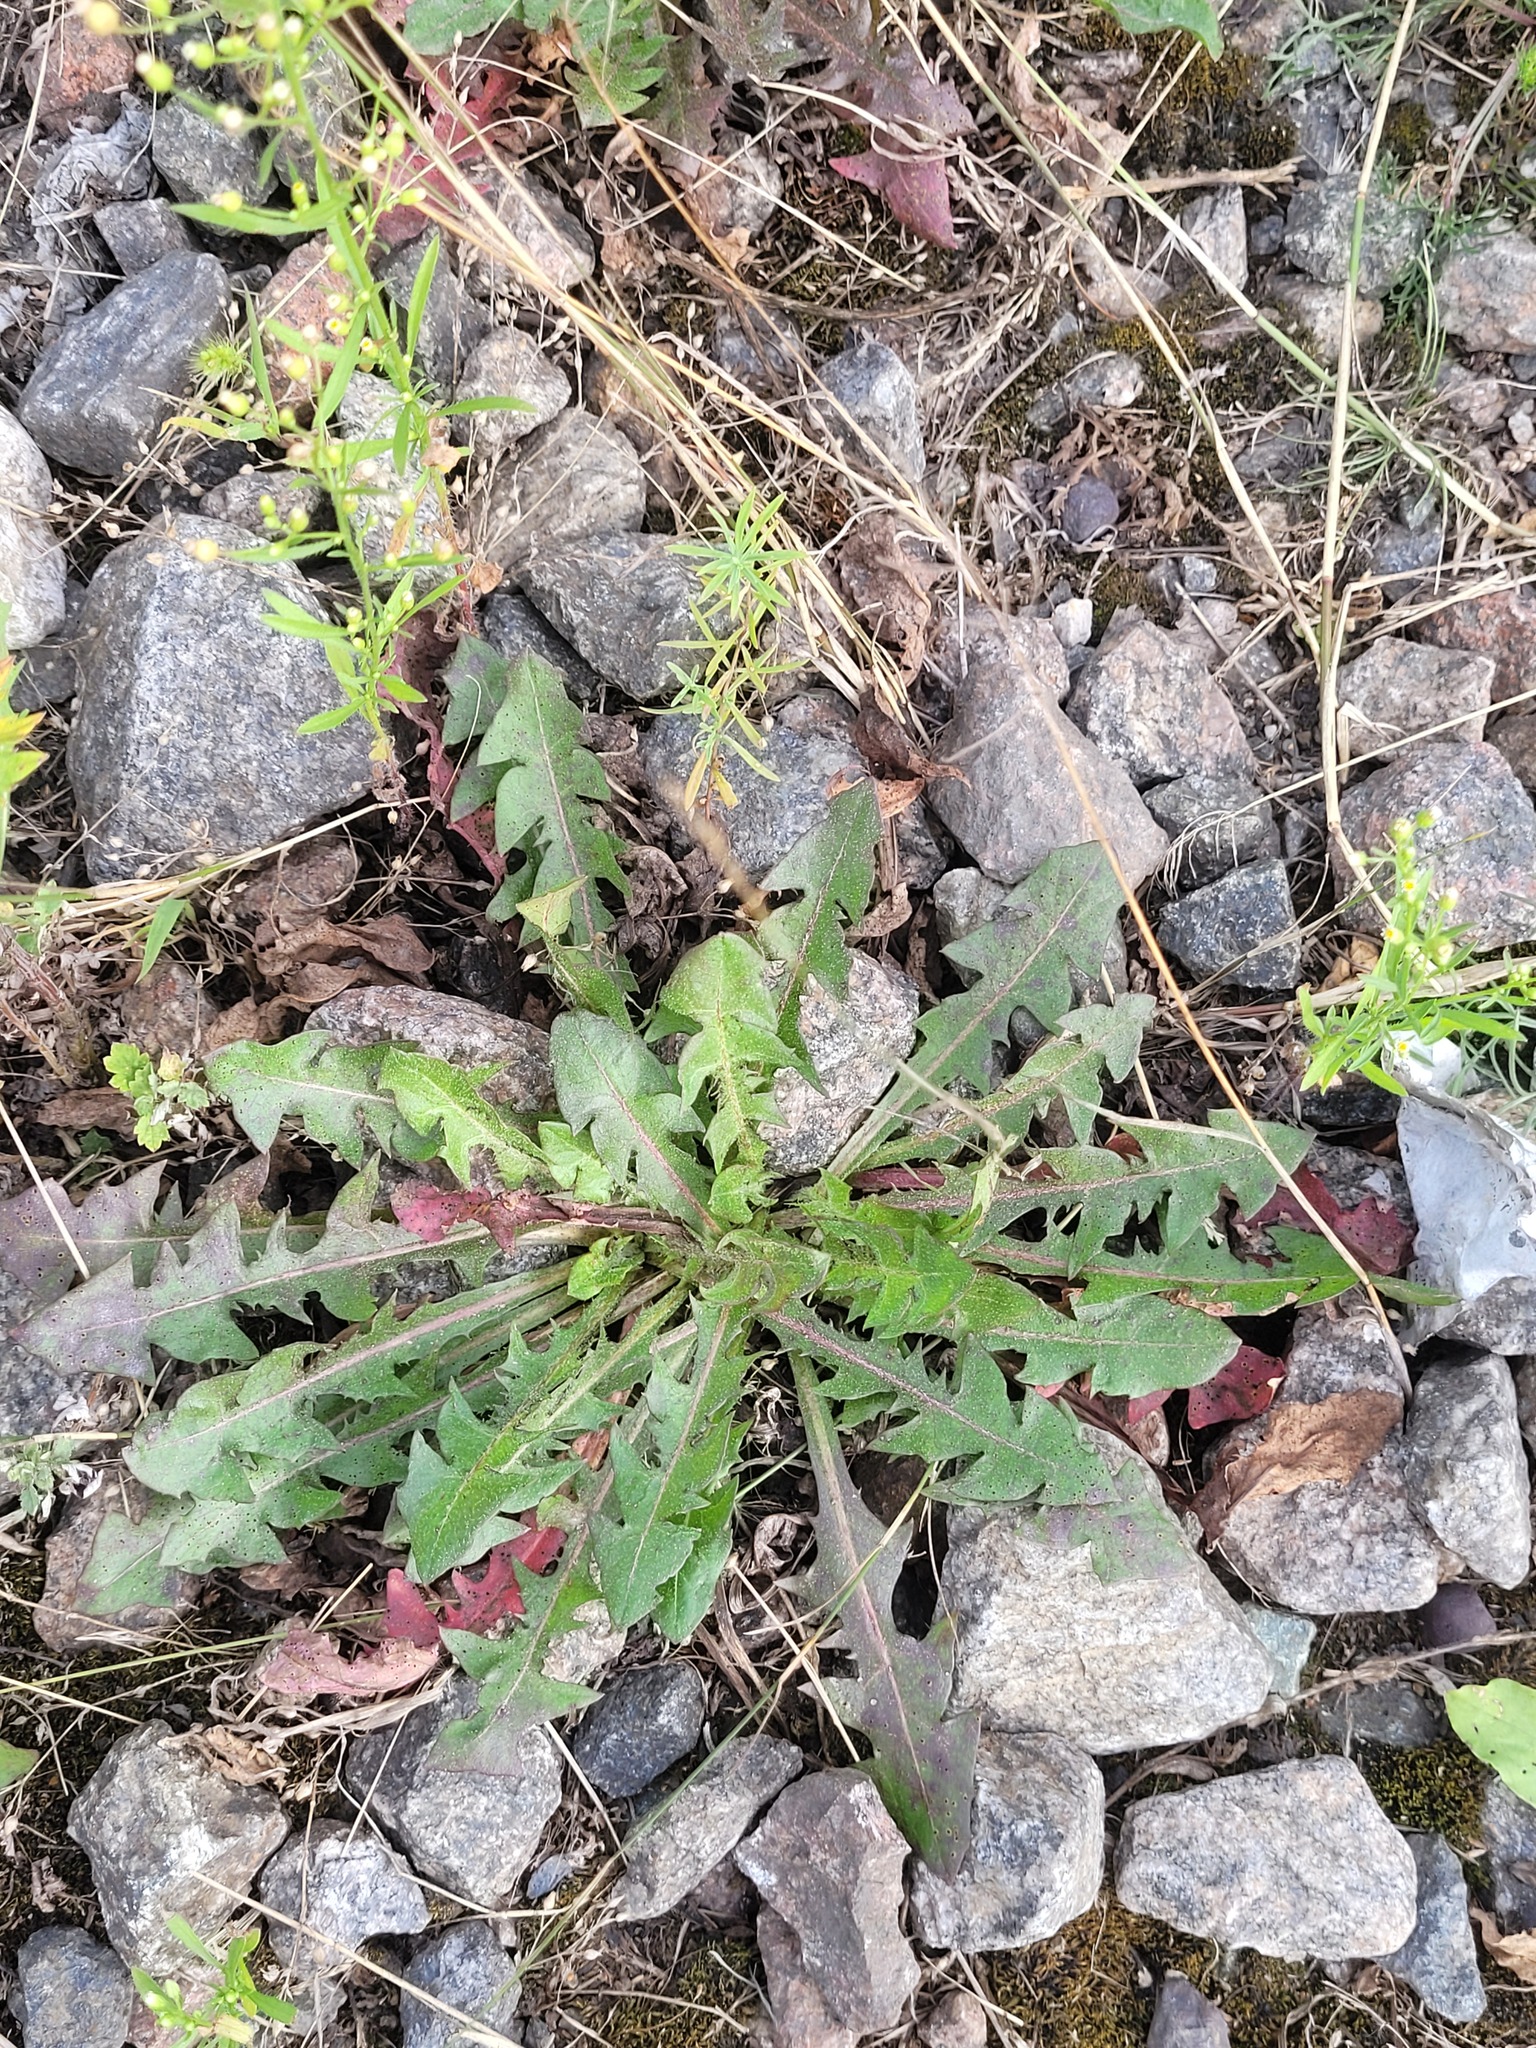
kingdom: Plantae
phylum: Tracheophyta
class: Magnoliopsida
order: Asterales
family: Asteraceae
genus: Taraxacum
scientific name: Taraxacum officinale
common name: Common dandelion
